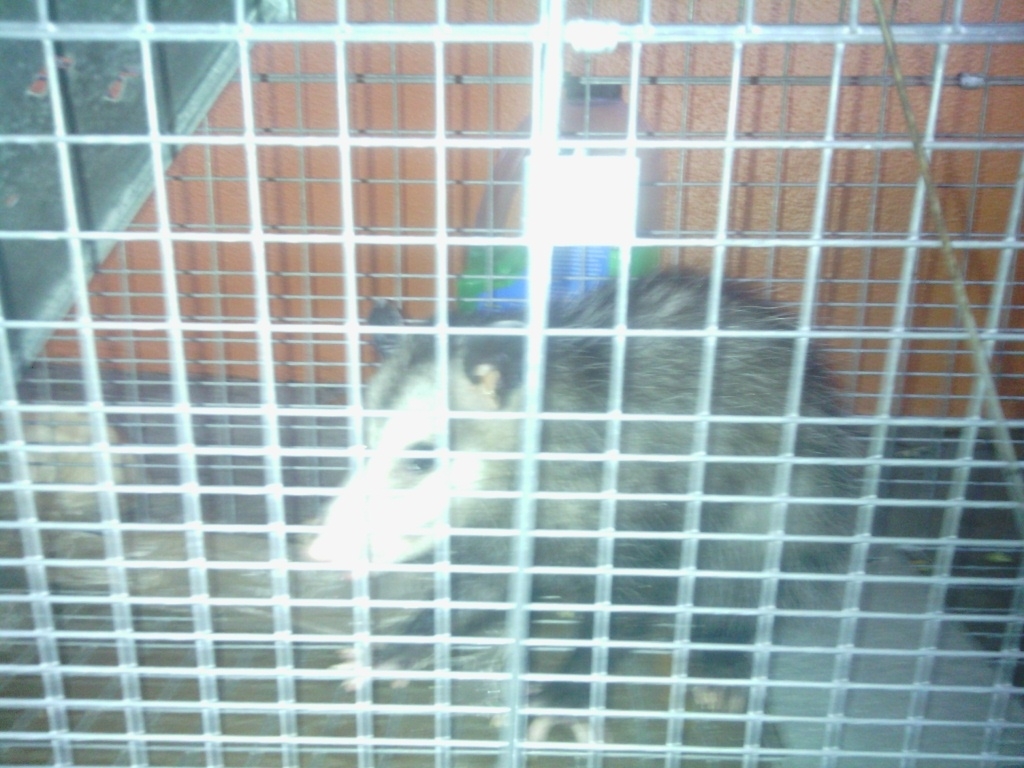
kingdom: Animalia
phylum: Chordata
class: Mammalia
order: Didelphimorphia
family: Didelphidae
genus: Didelphis
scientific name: Didelphis virginiana
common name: Virginia opossum
